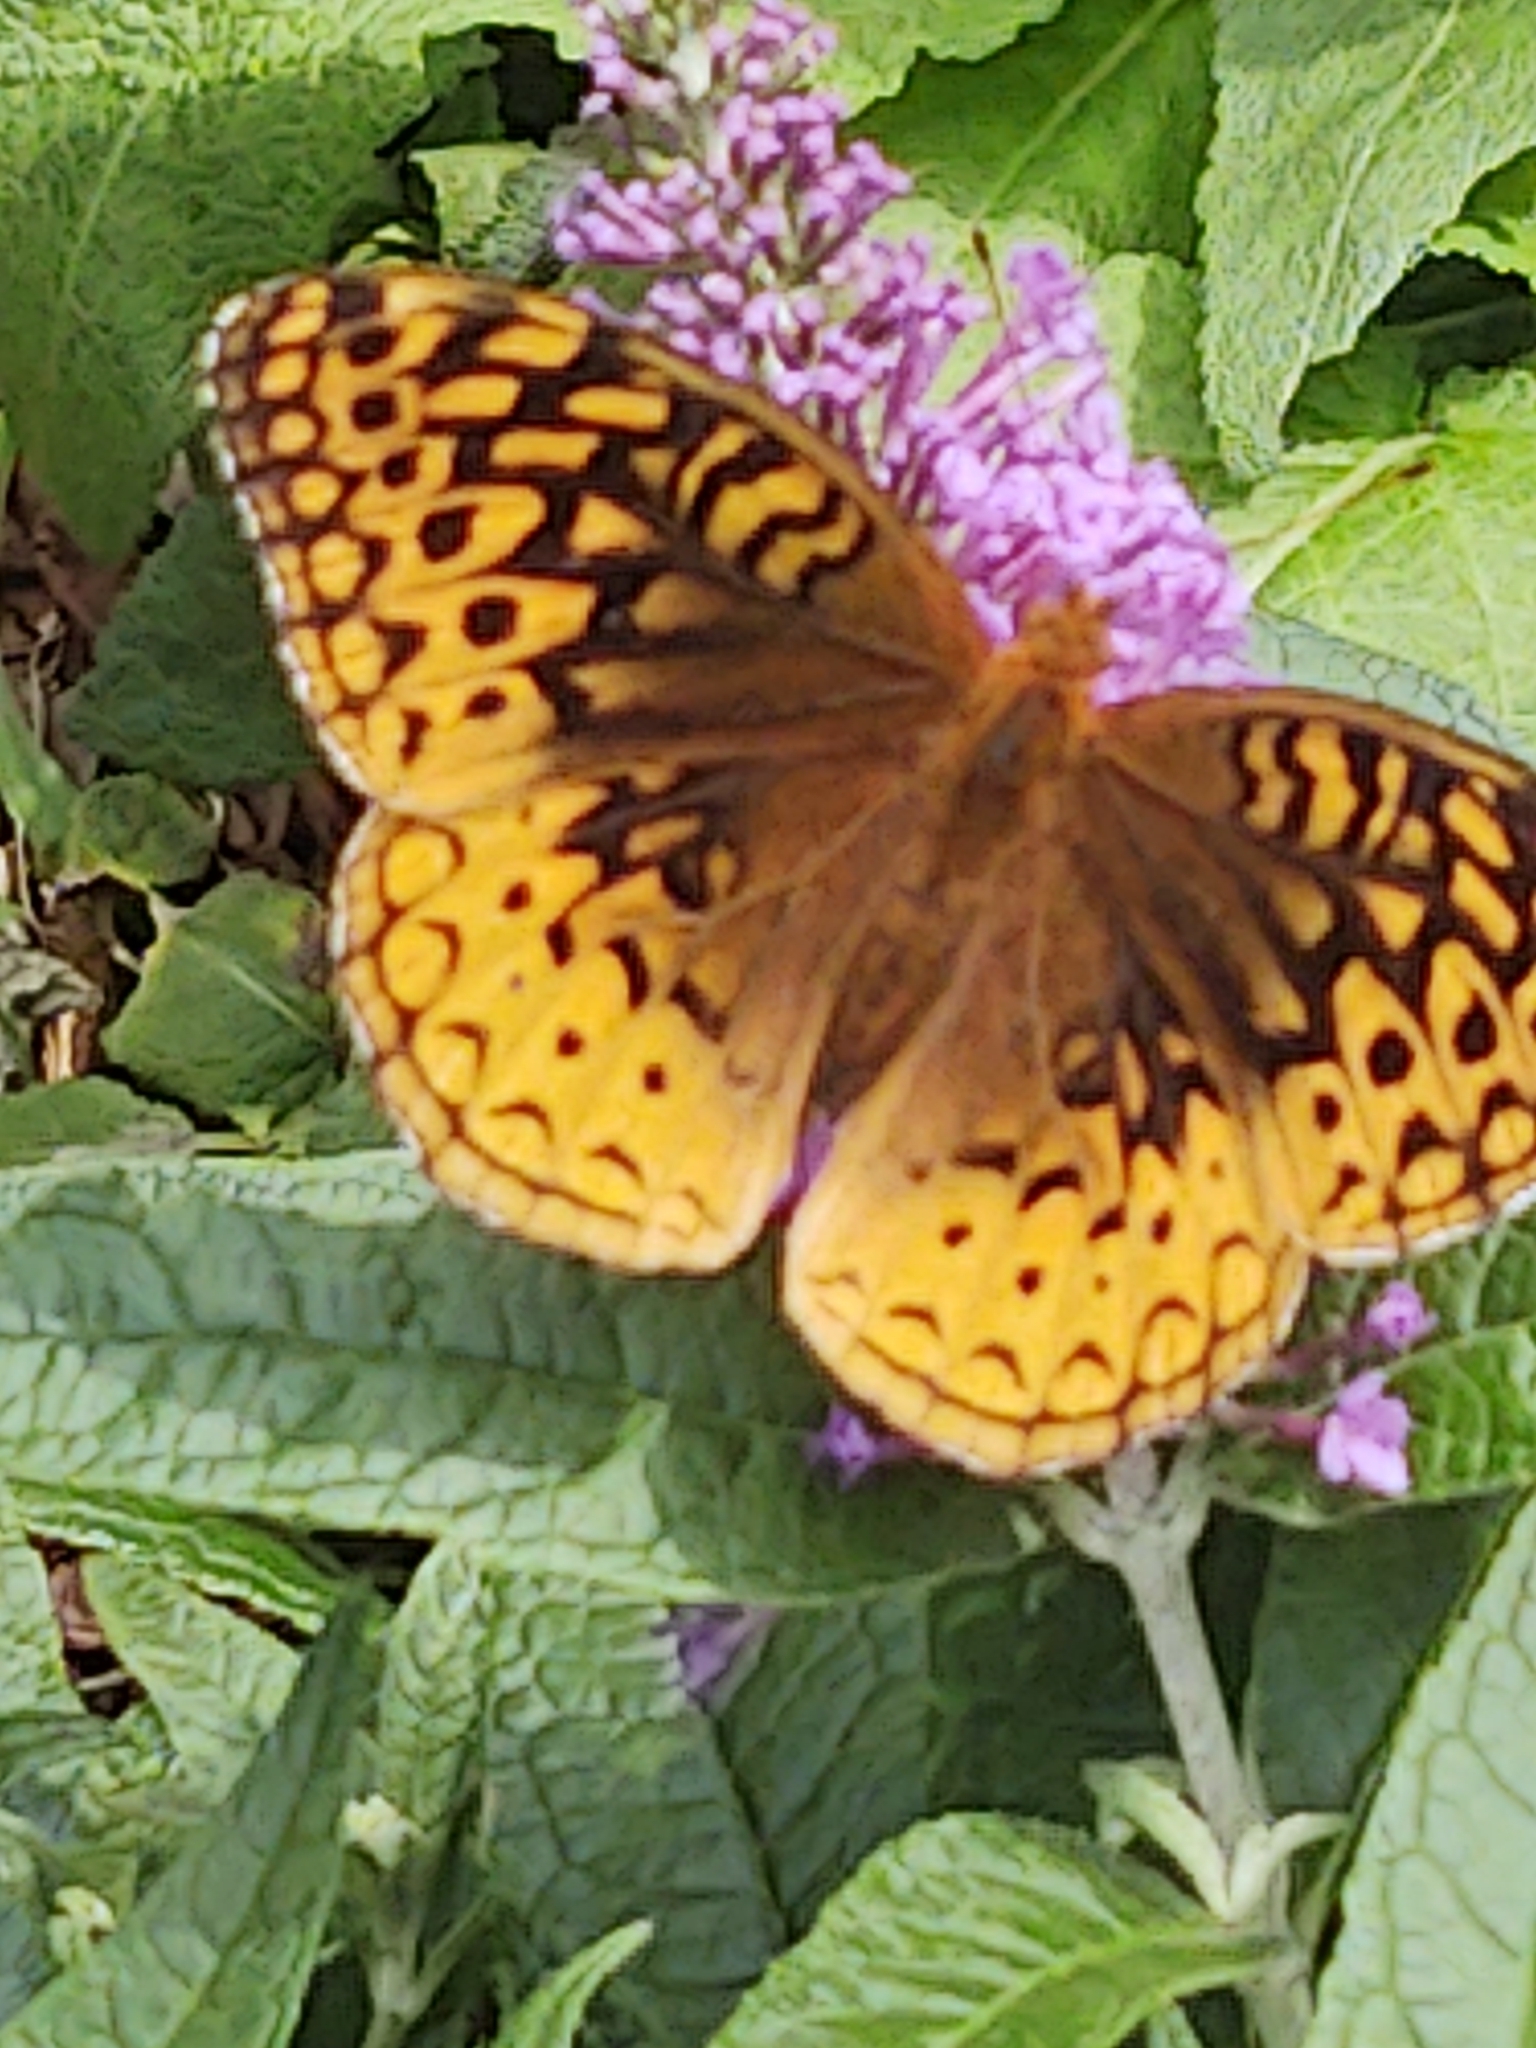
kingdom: Animalia
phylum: Arthropoda
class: Insecta
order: Lepidoptera
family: Nymphalidae
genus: Speyeria
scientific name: Speyeria cybele
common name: Great spangled fritillary
